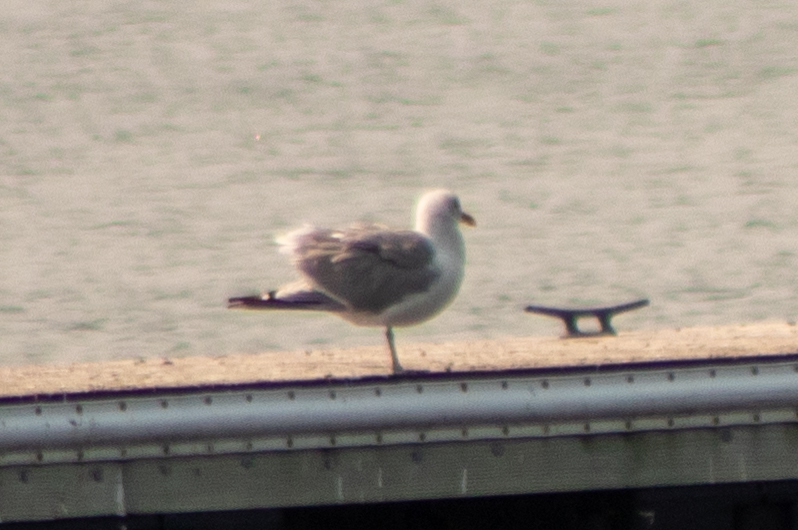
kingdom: Animalia
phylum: Chordata
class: Aves
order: Charadriiformes
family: Laridae
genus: Larus
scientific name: Larus argentatus
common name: Herring gull
